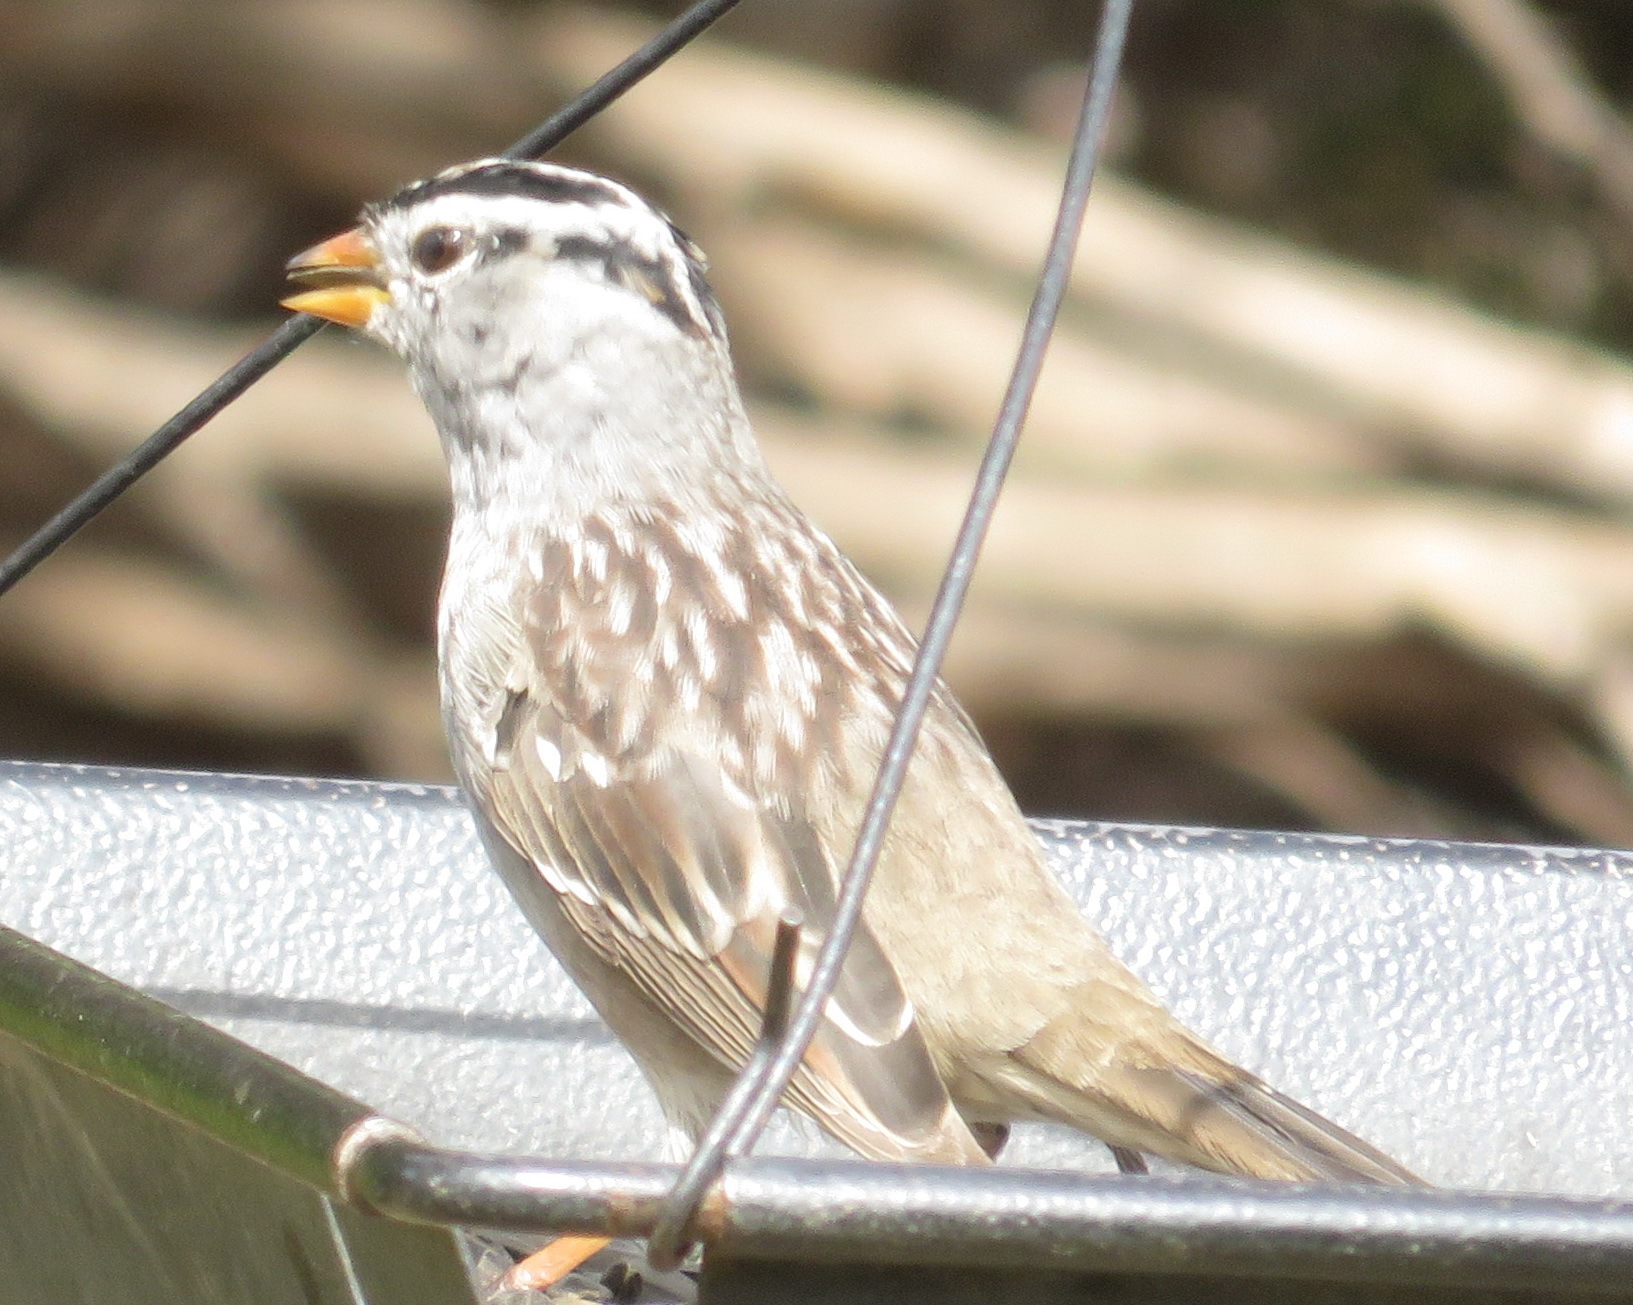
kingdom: Animalia
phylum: Chordata
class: Aves
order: Passeriformes
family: Passerellidae
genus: Zonotrichia
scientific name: Zonotrichia leucophrys
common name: White-crowned sparrow
